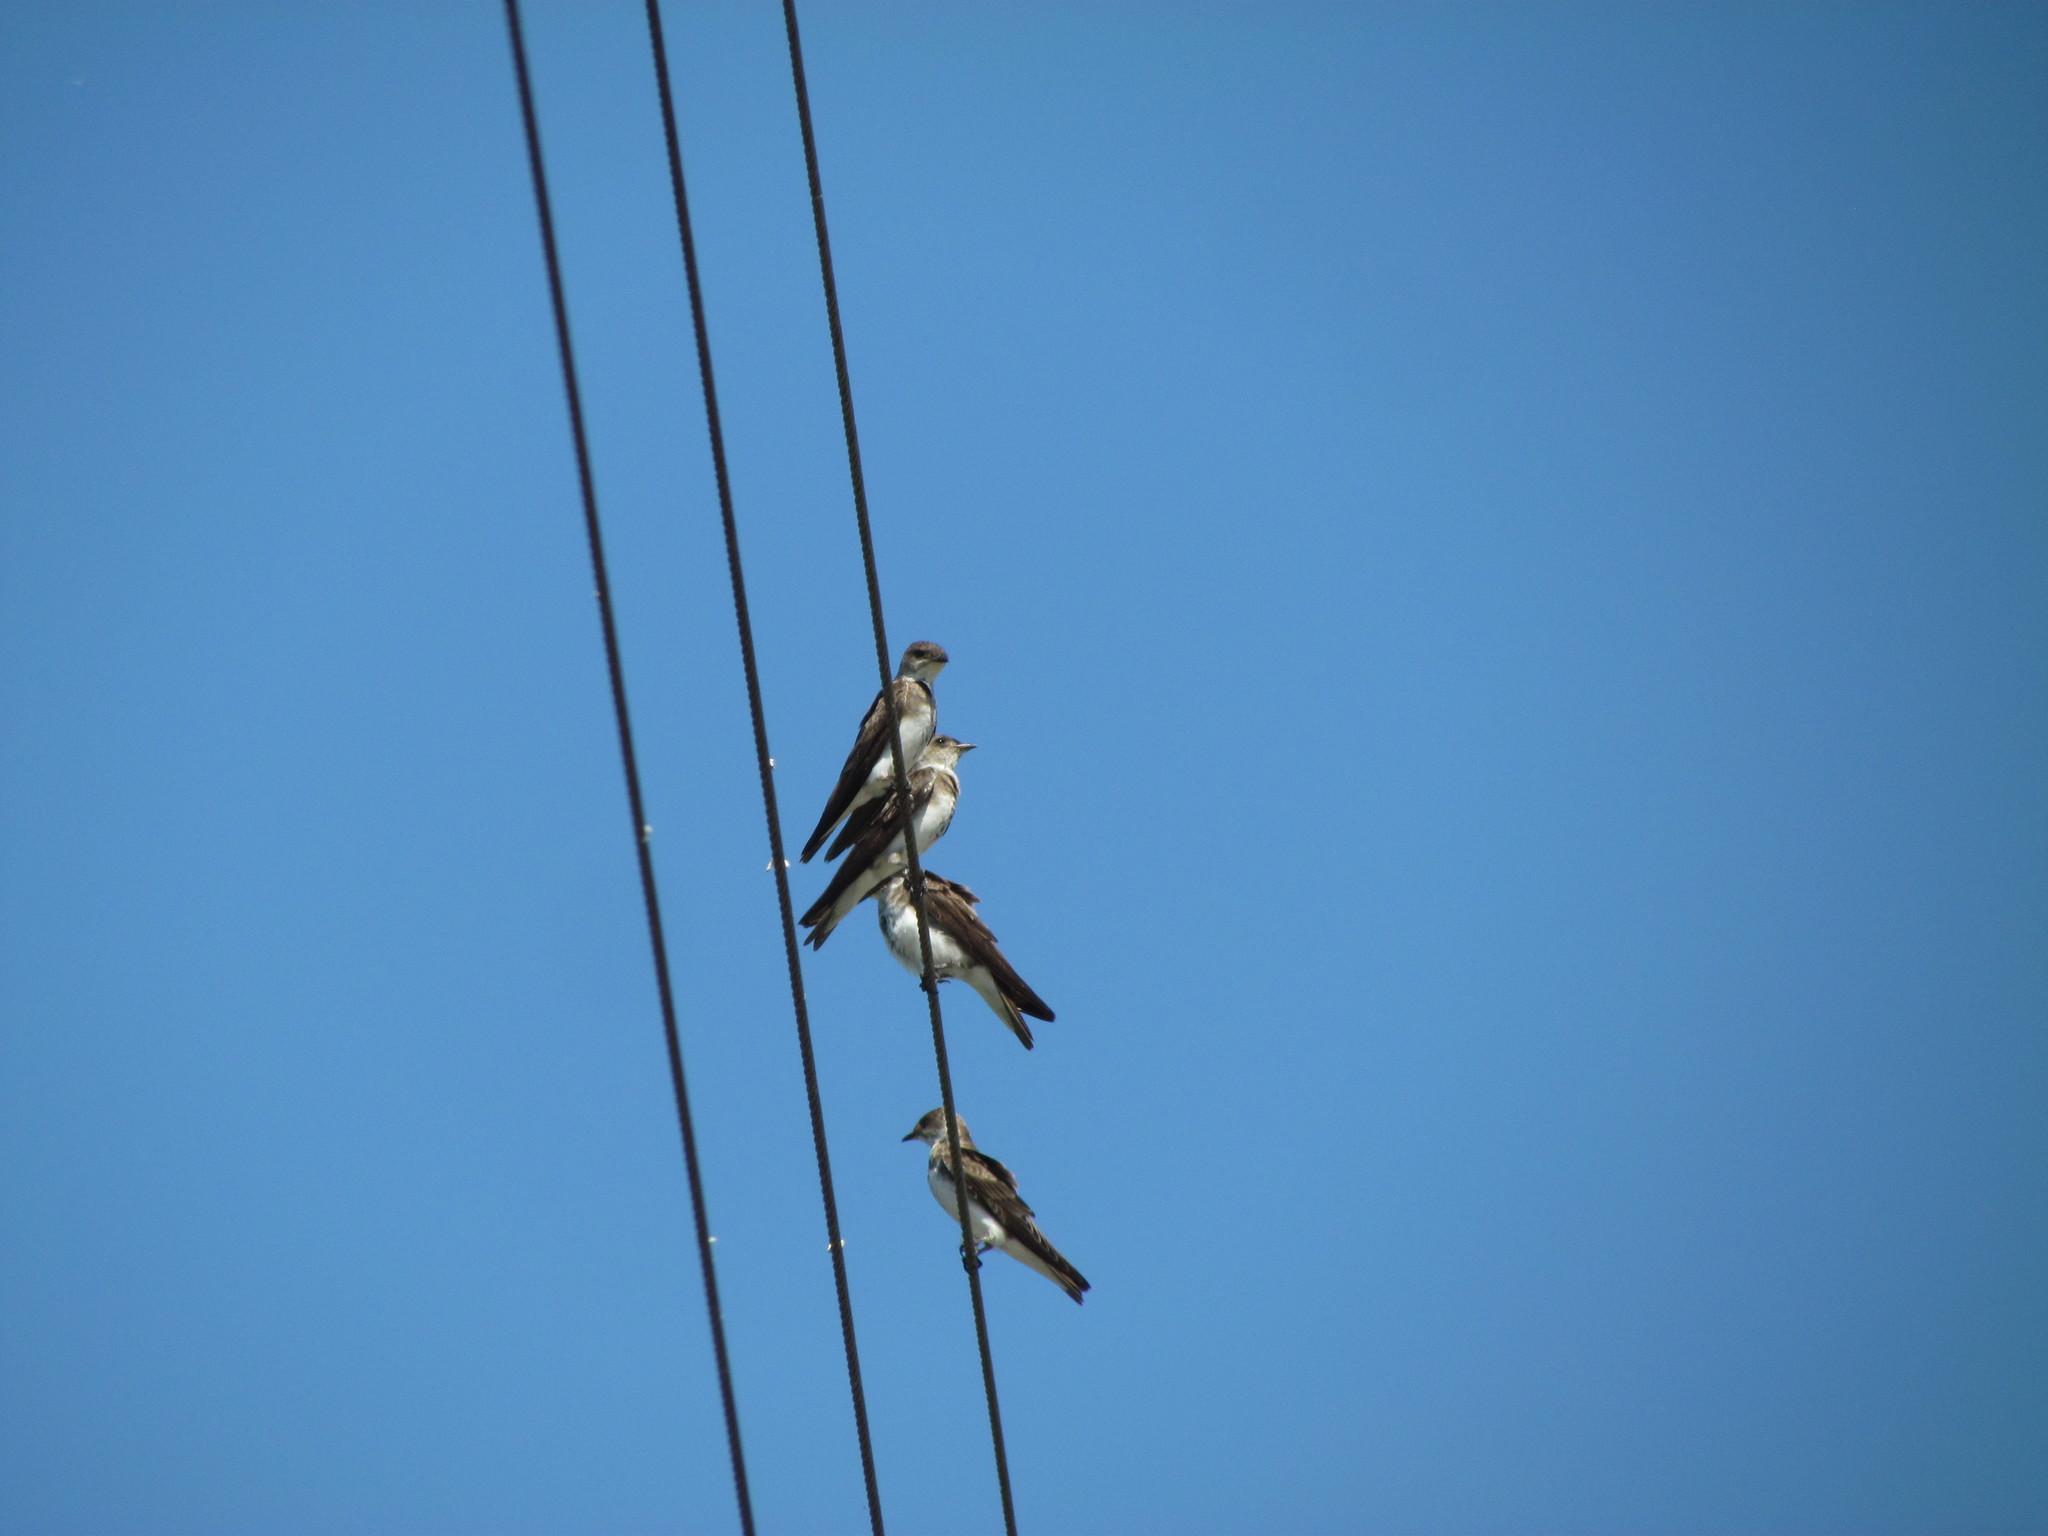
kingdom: Animalia
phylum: Chordata
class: Aves
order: Passeriformes
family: Hirundinidae
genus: Progne
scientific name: Progne tapera
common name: Brown-chested martin
